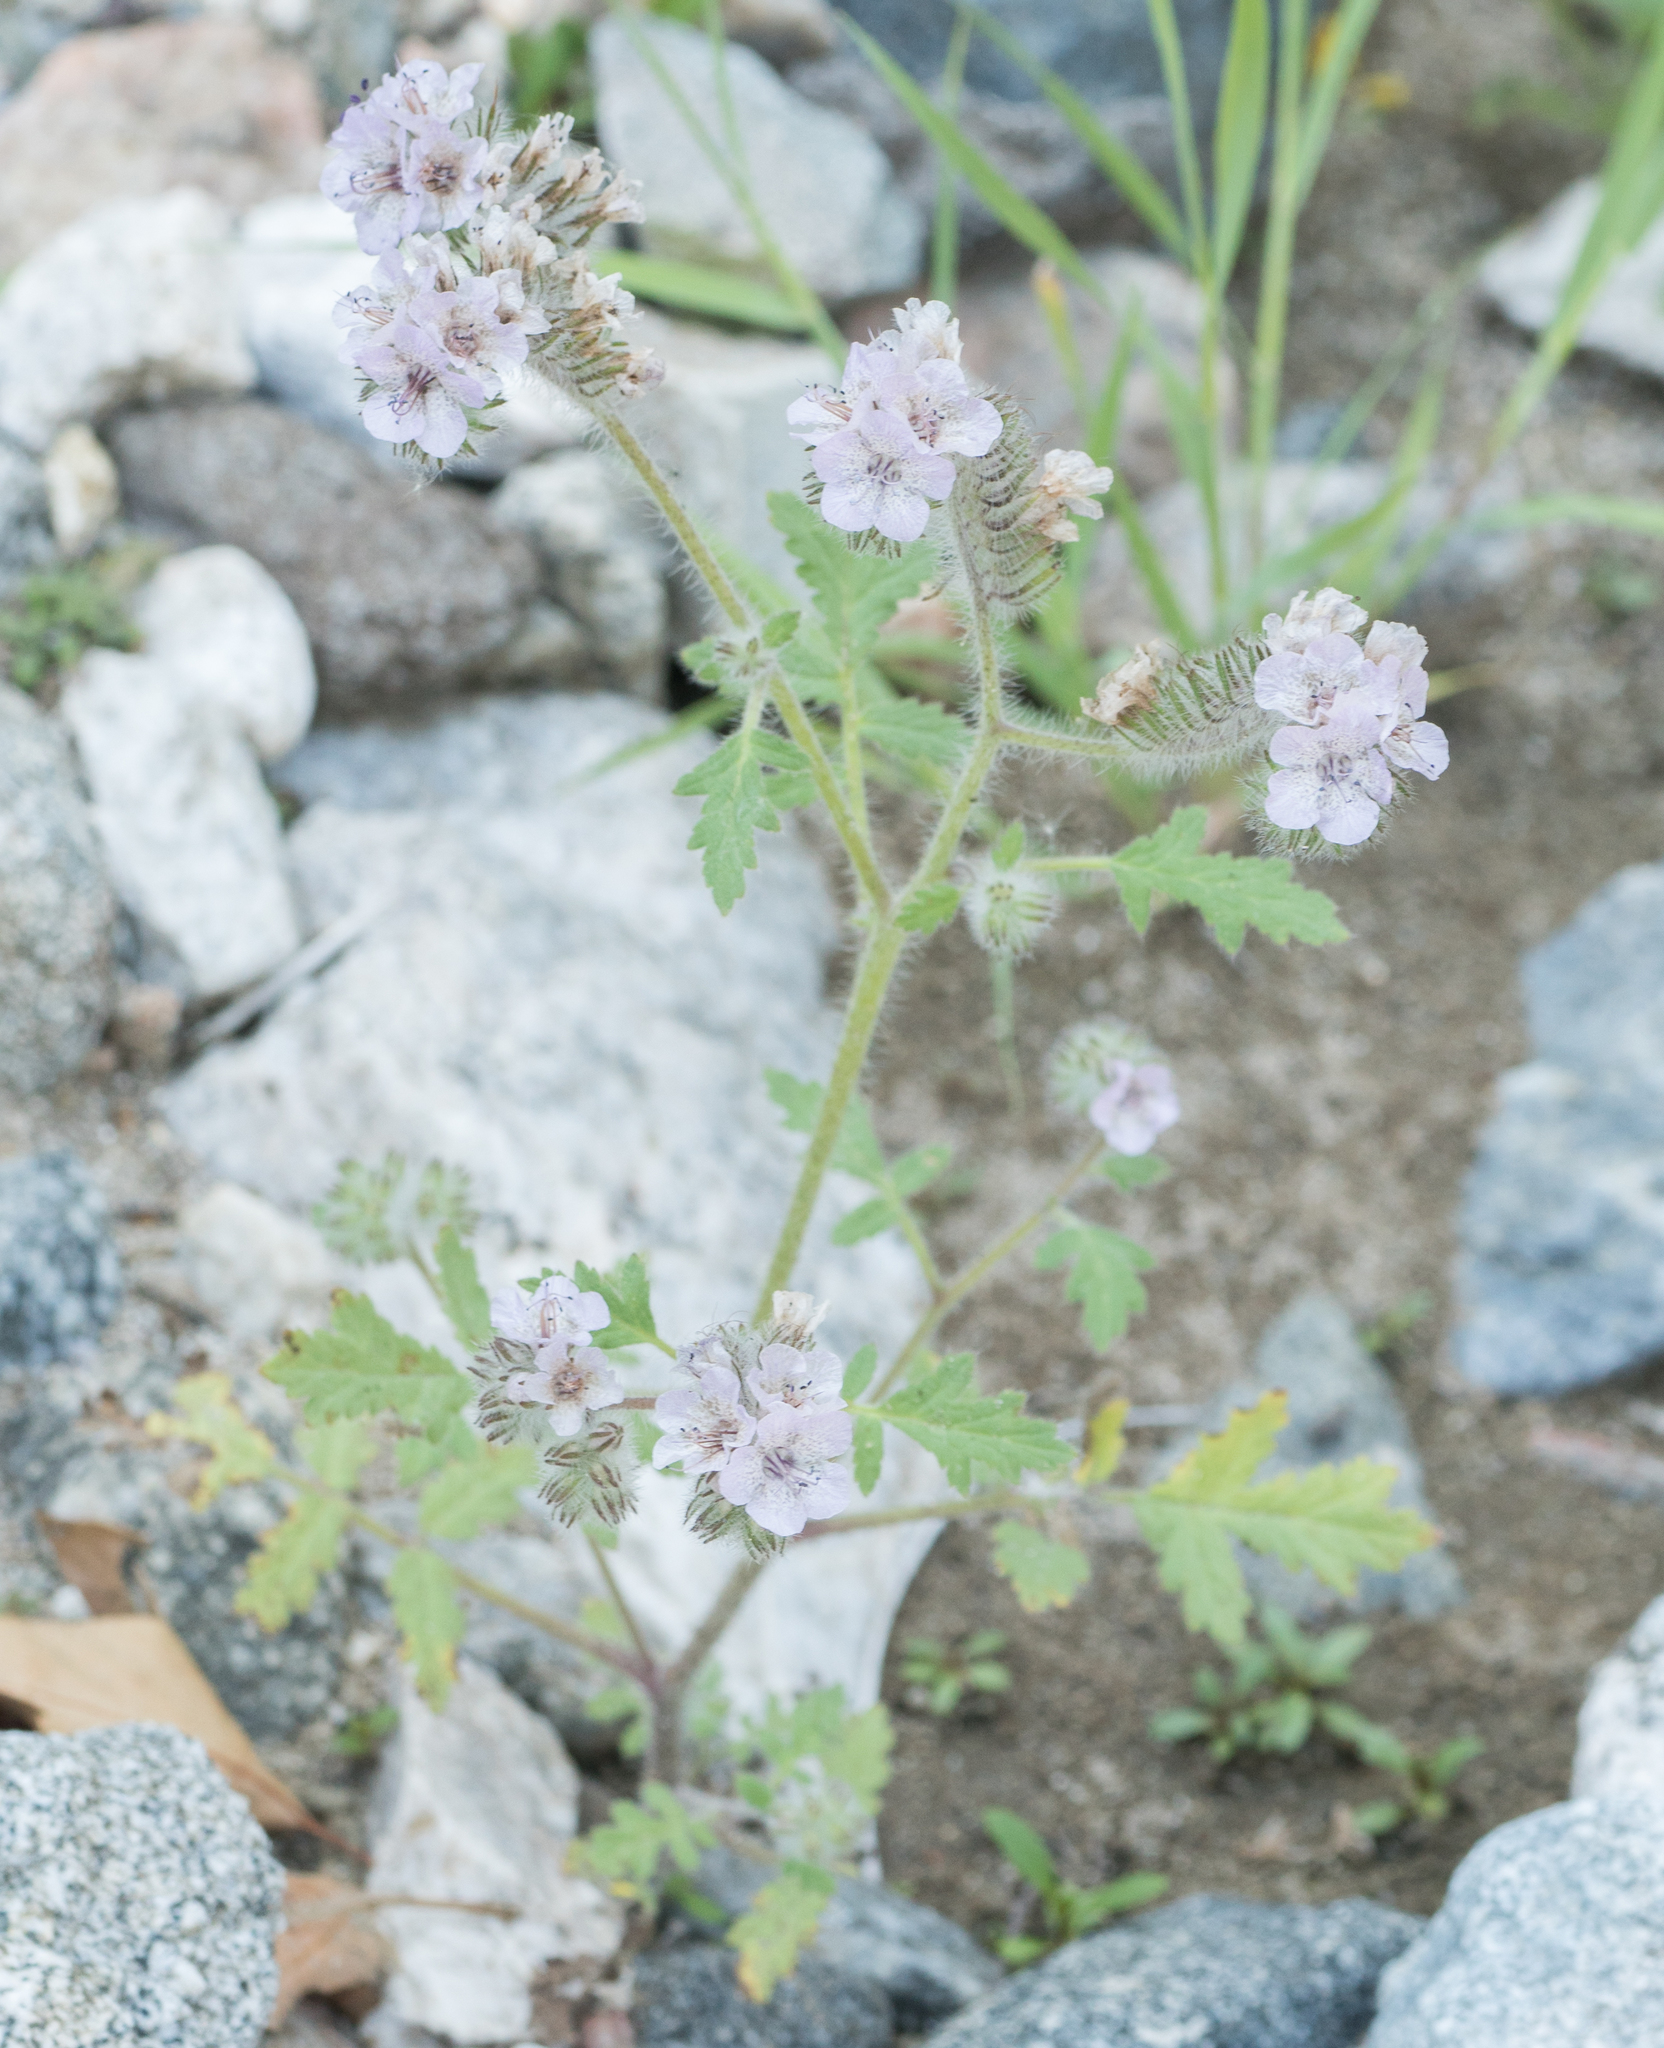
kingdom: Plantae
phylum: Tracheophyta
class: Magnoliopsida
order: Boraginales
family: Hydrophyllaceae
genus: Phacelia
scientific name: Phacelia cicutaria
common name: Caterpillar phacelia
